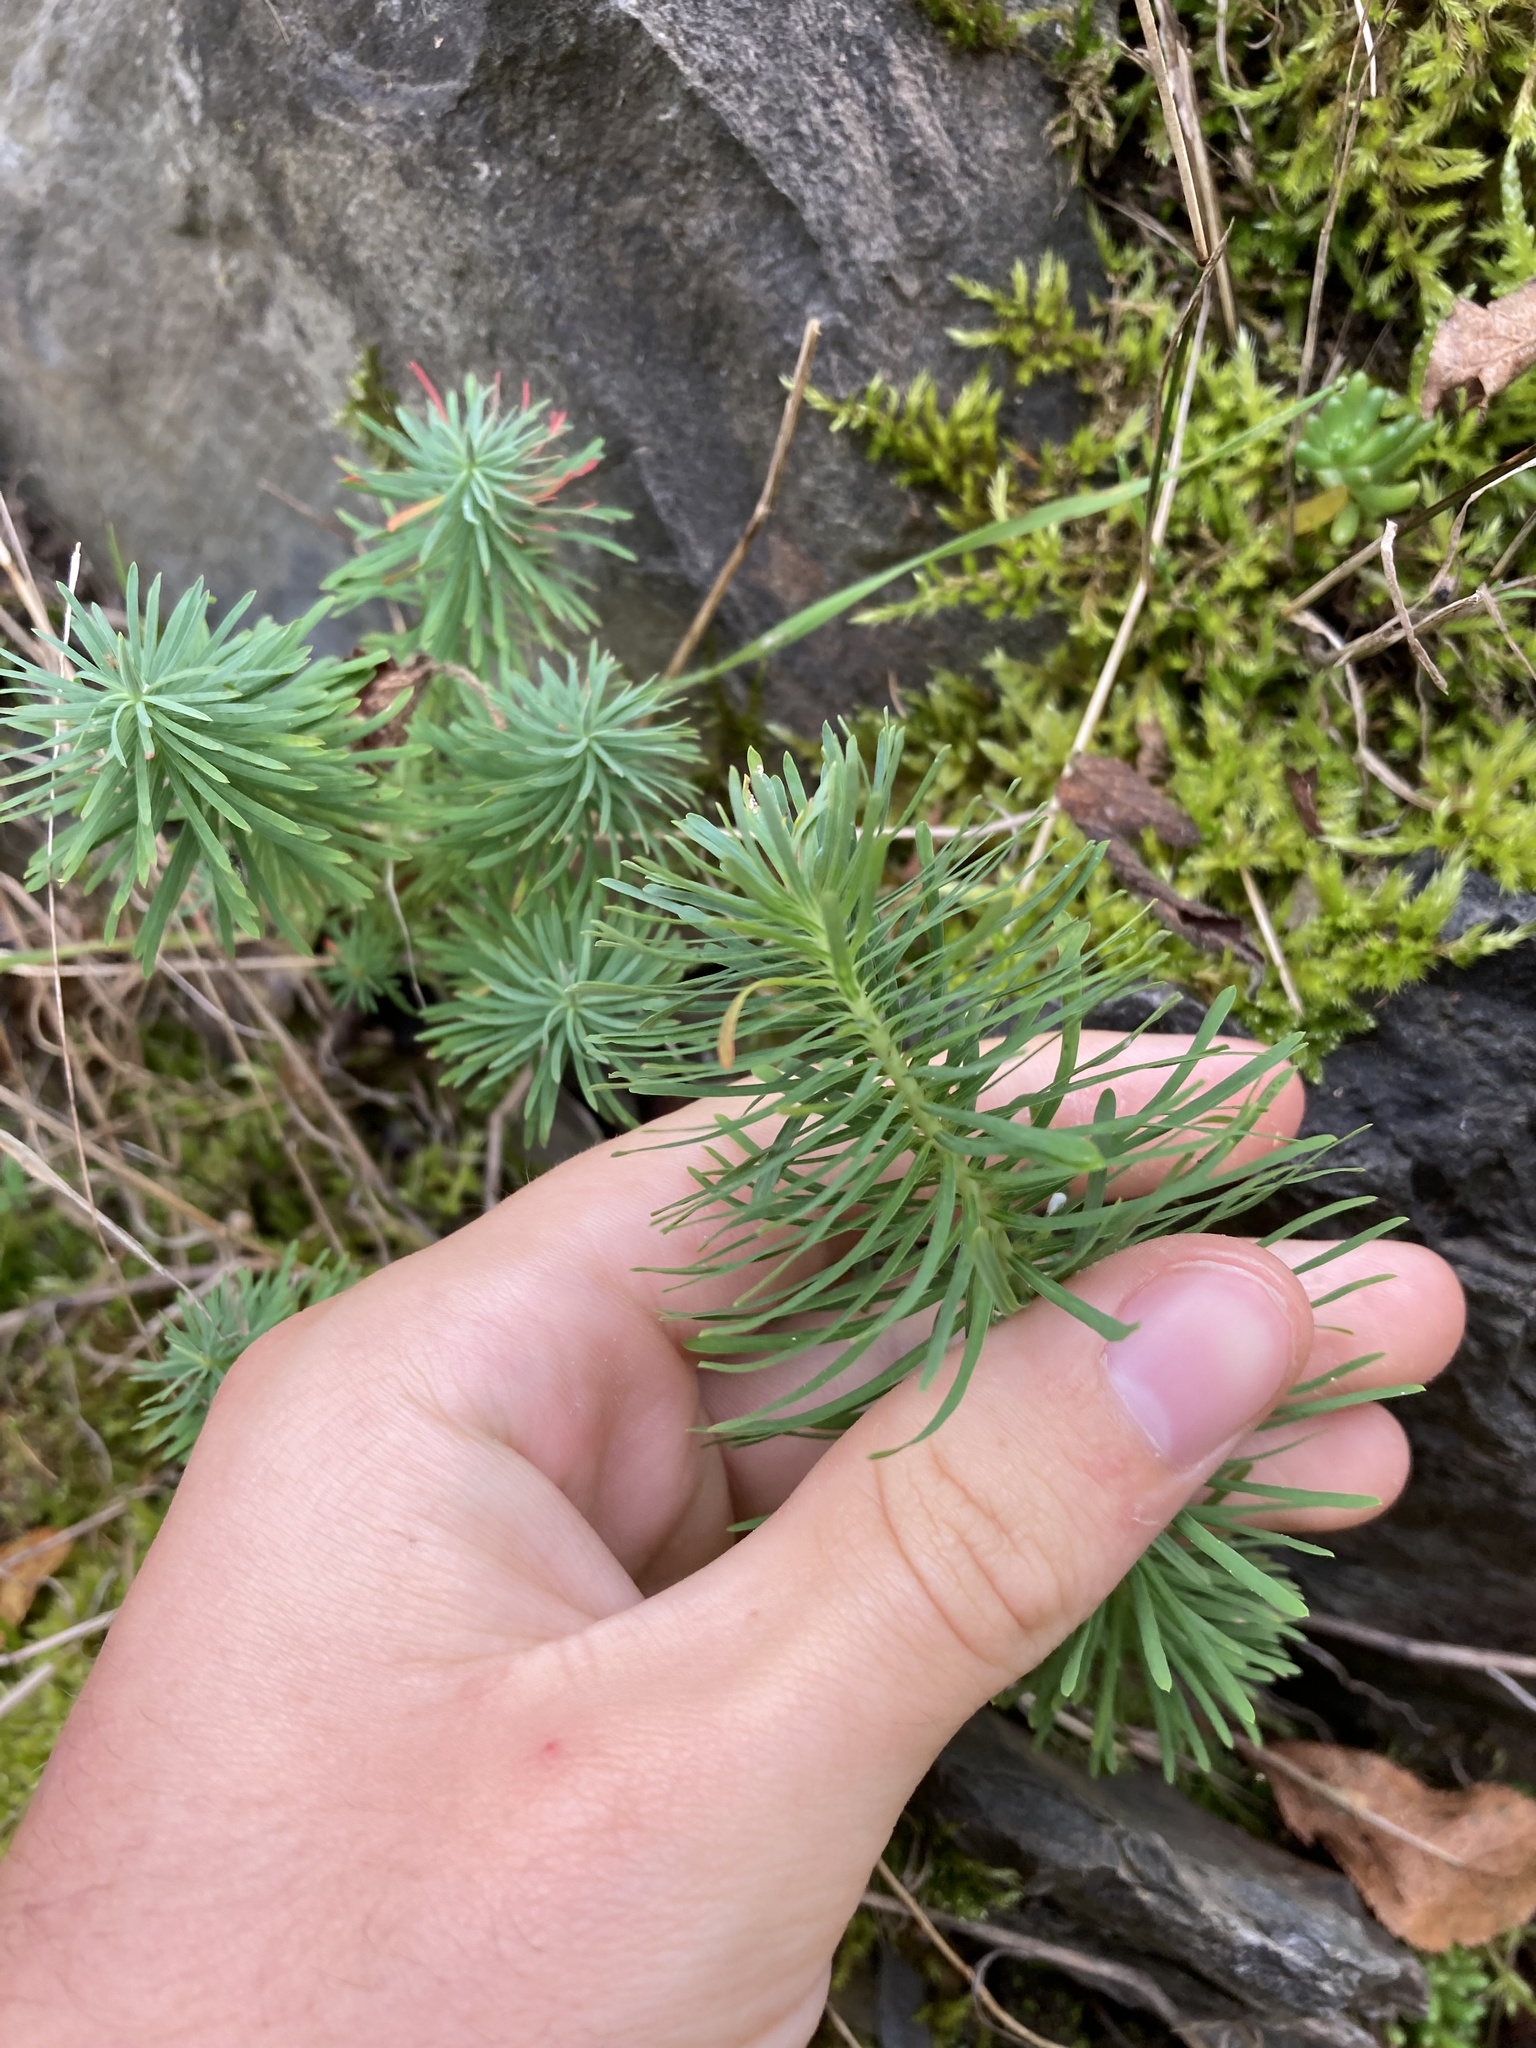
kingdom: Plantae
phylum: Tracheophyta
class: Magnoliopsida
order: Malpighiales
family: Euphorbiaceae
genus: Euphorbia
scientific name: Euphorbia cyparissias
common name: Cypress spurge
